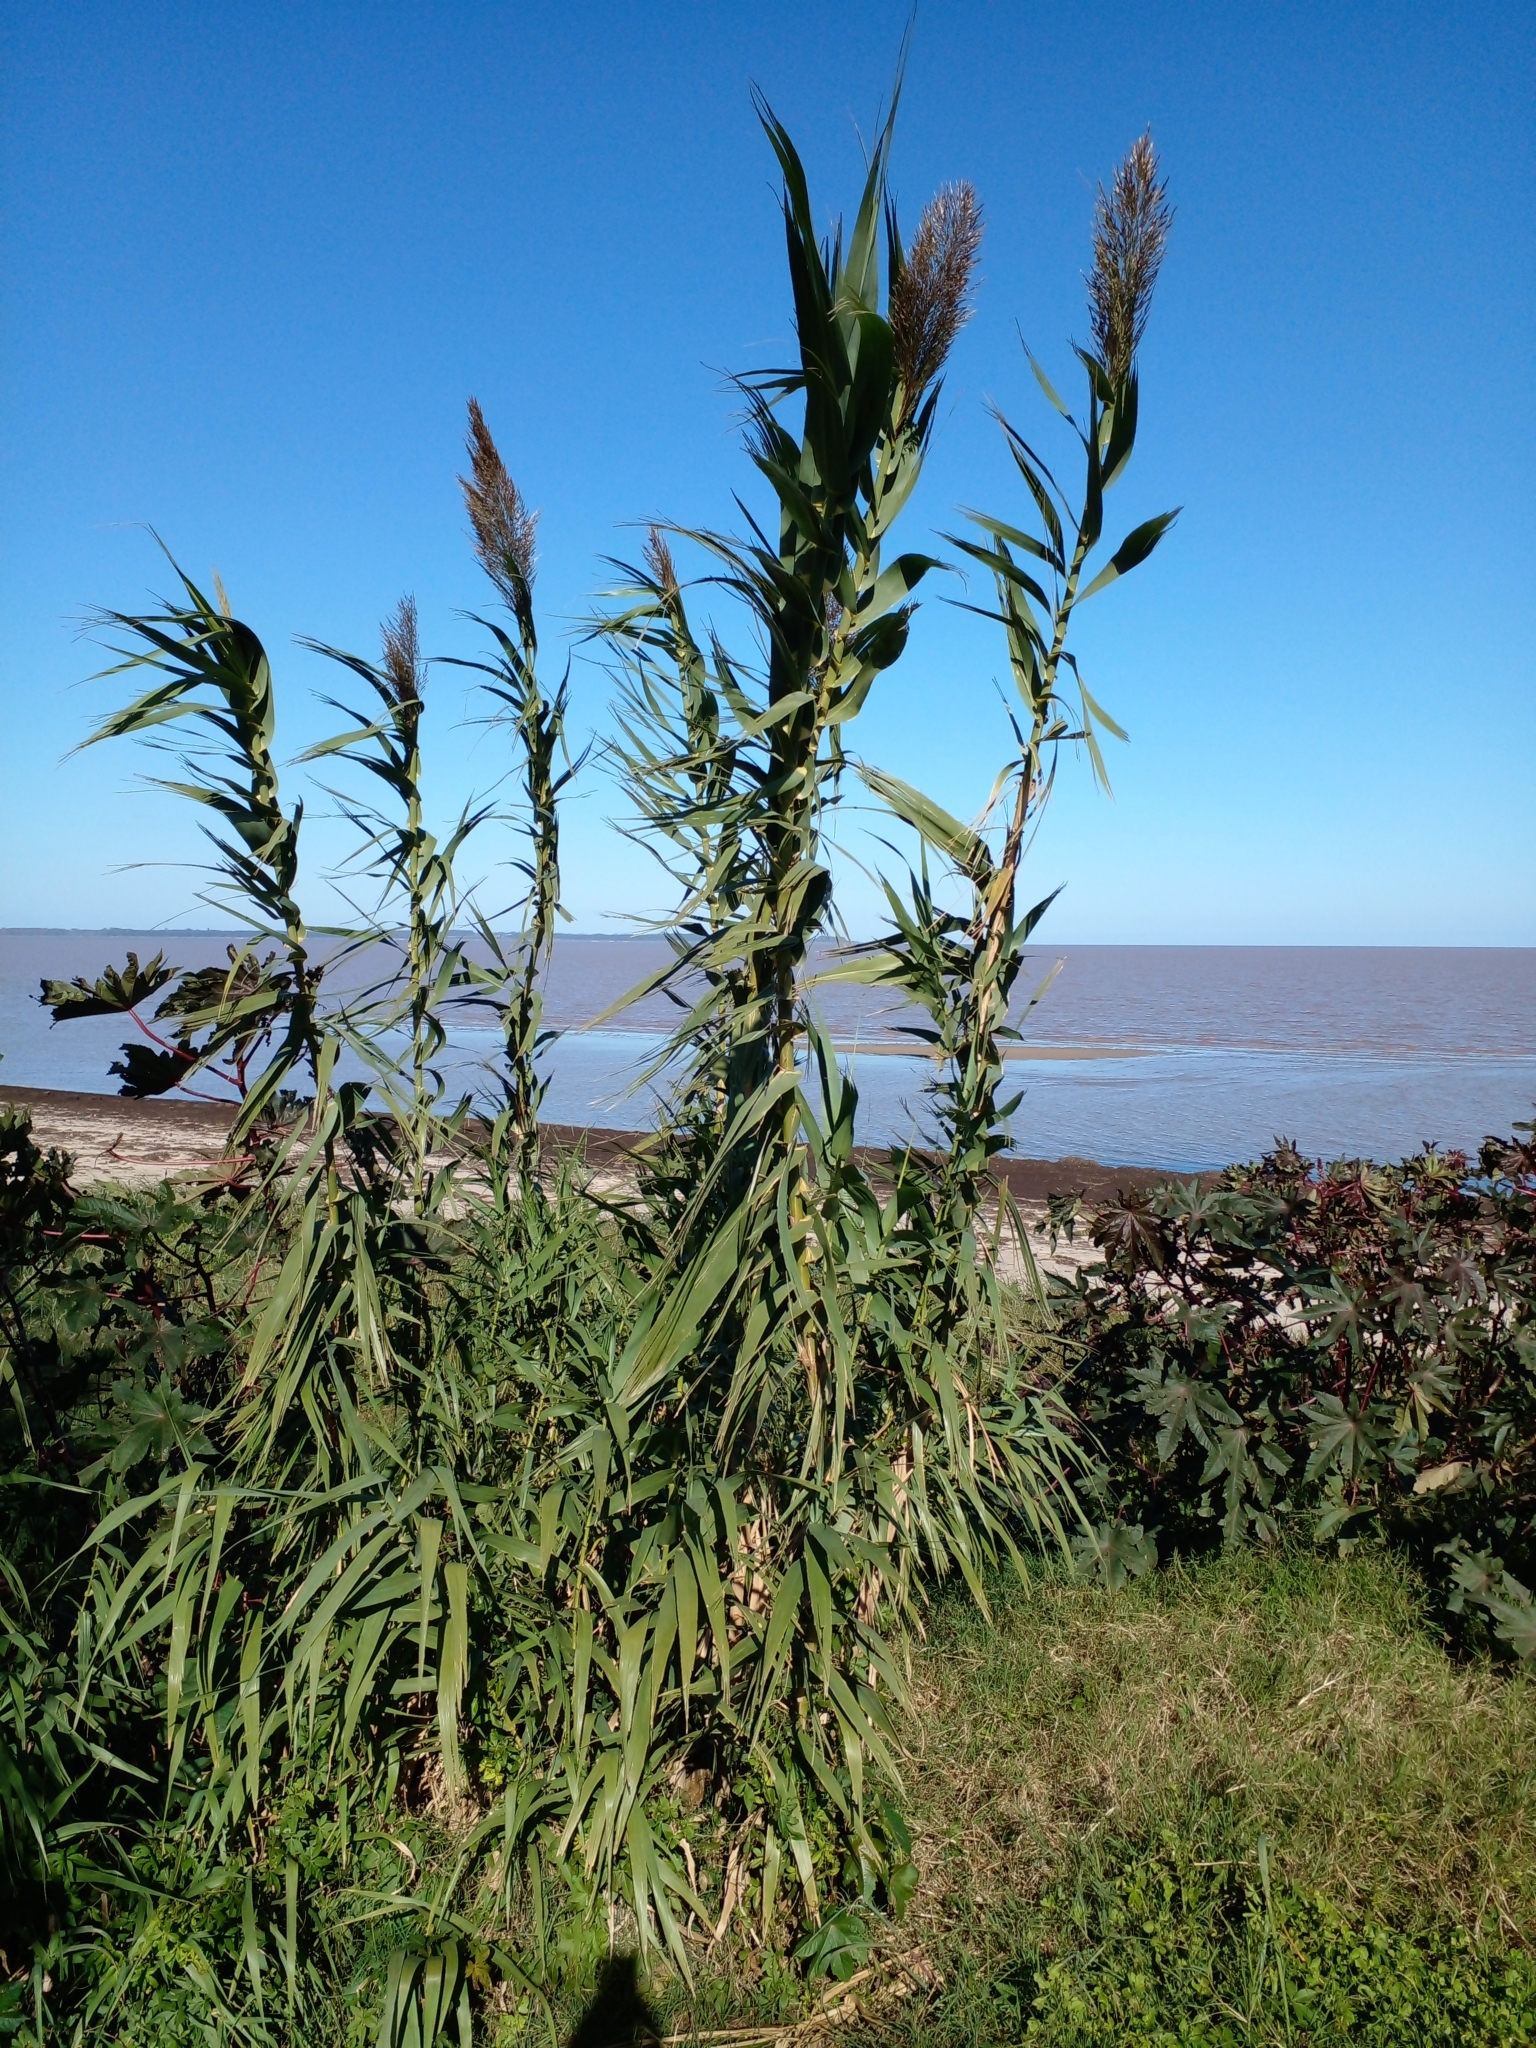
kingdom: Plantae
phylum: Tracheophyta
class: Liliopsida
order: Poales
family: Poaceae
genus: Arundo
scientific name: Arundo donax
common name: Giant reed
